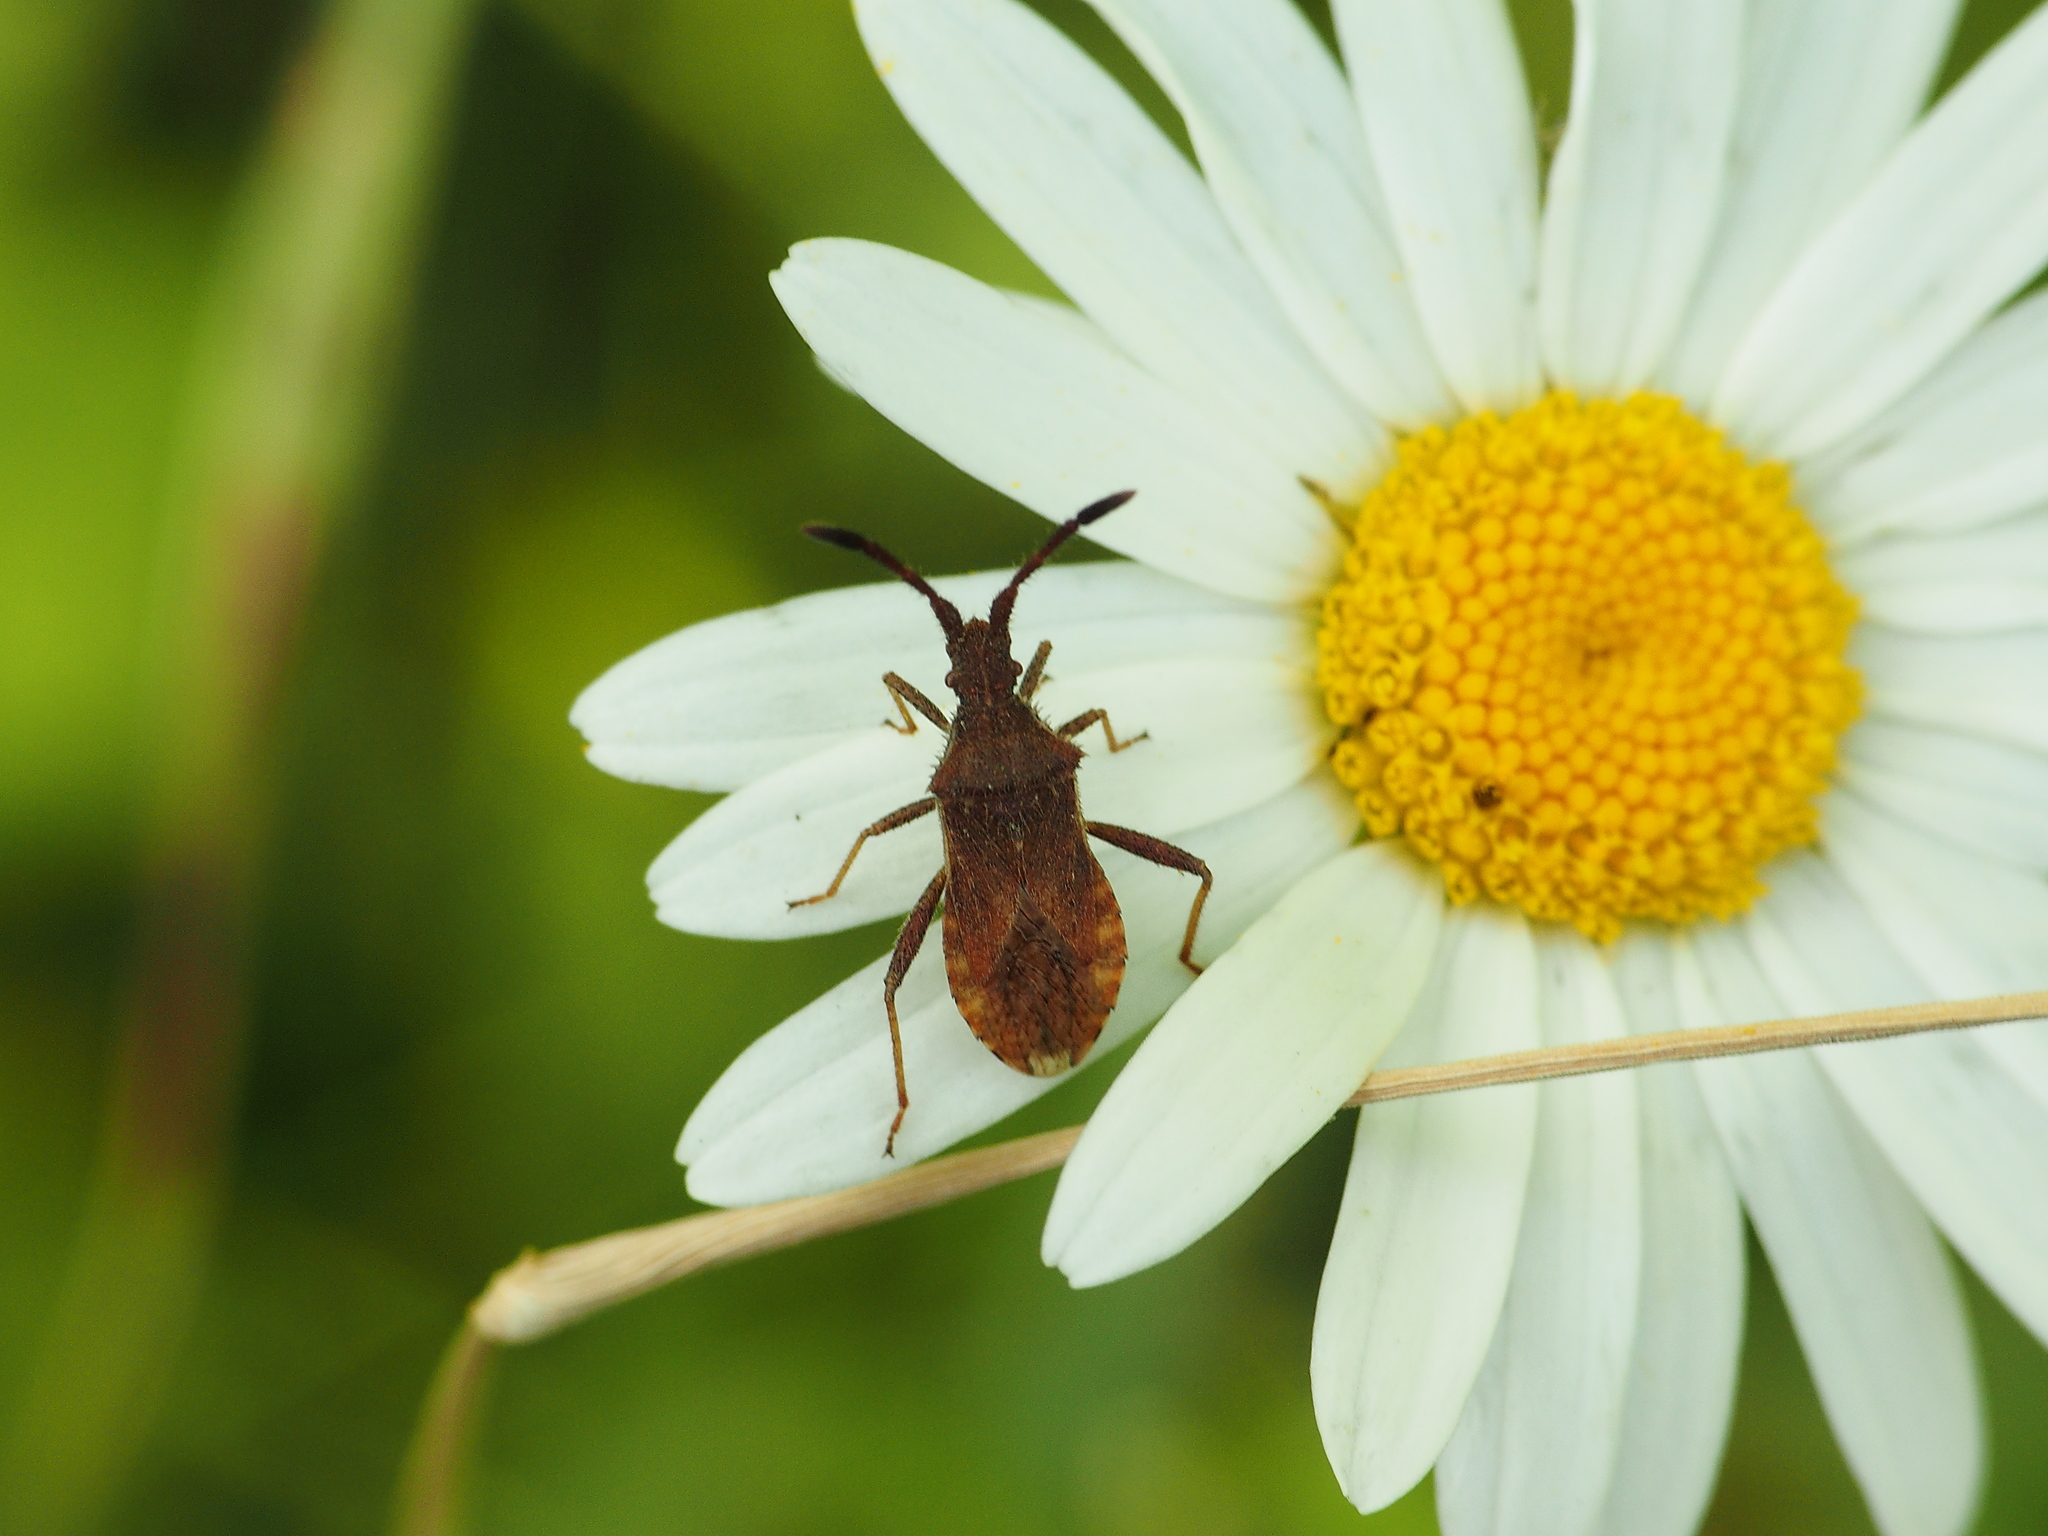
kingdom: Animalia
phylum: Arthropoda
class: Insecta
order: Hemiptera
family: Coreidae
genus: Coriomeris
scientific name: Coriomeris denticulatus
